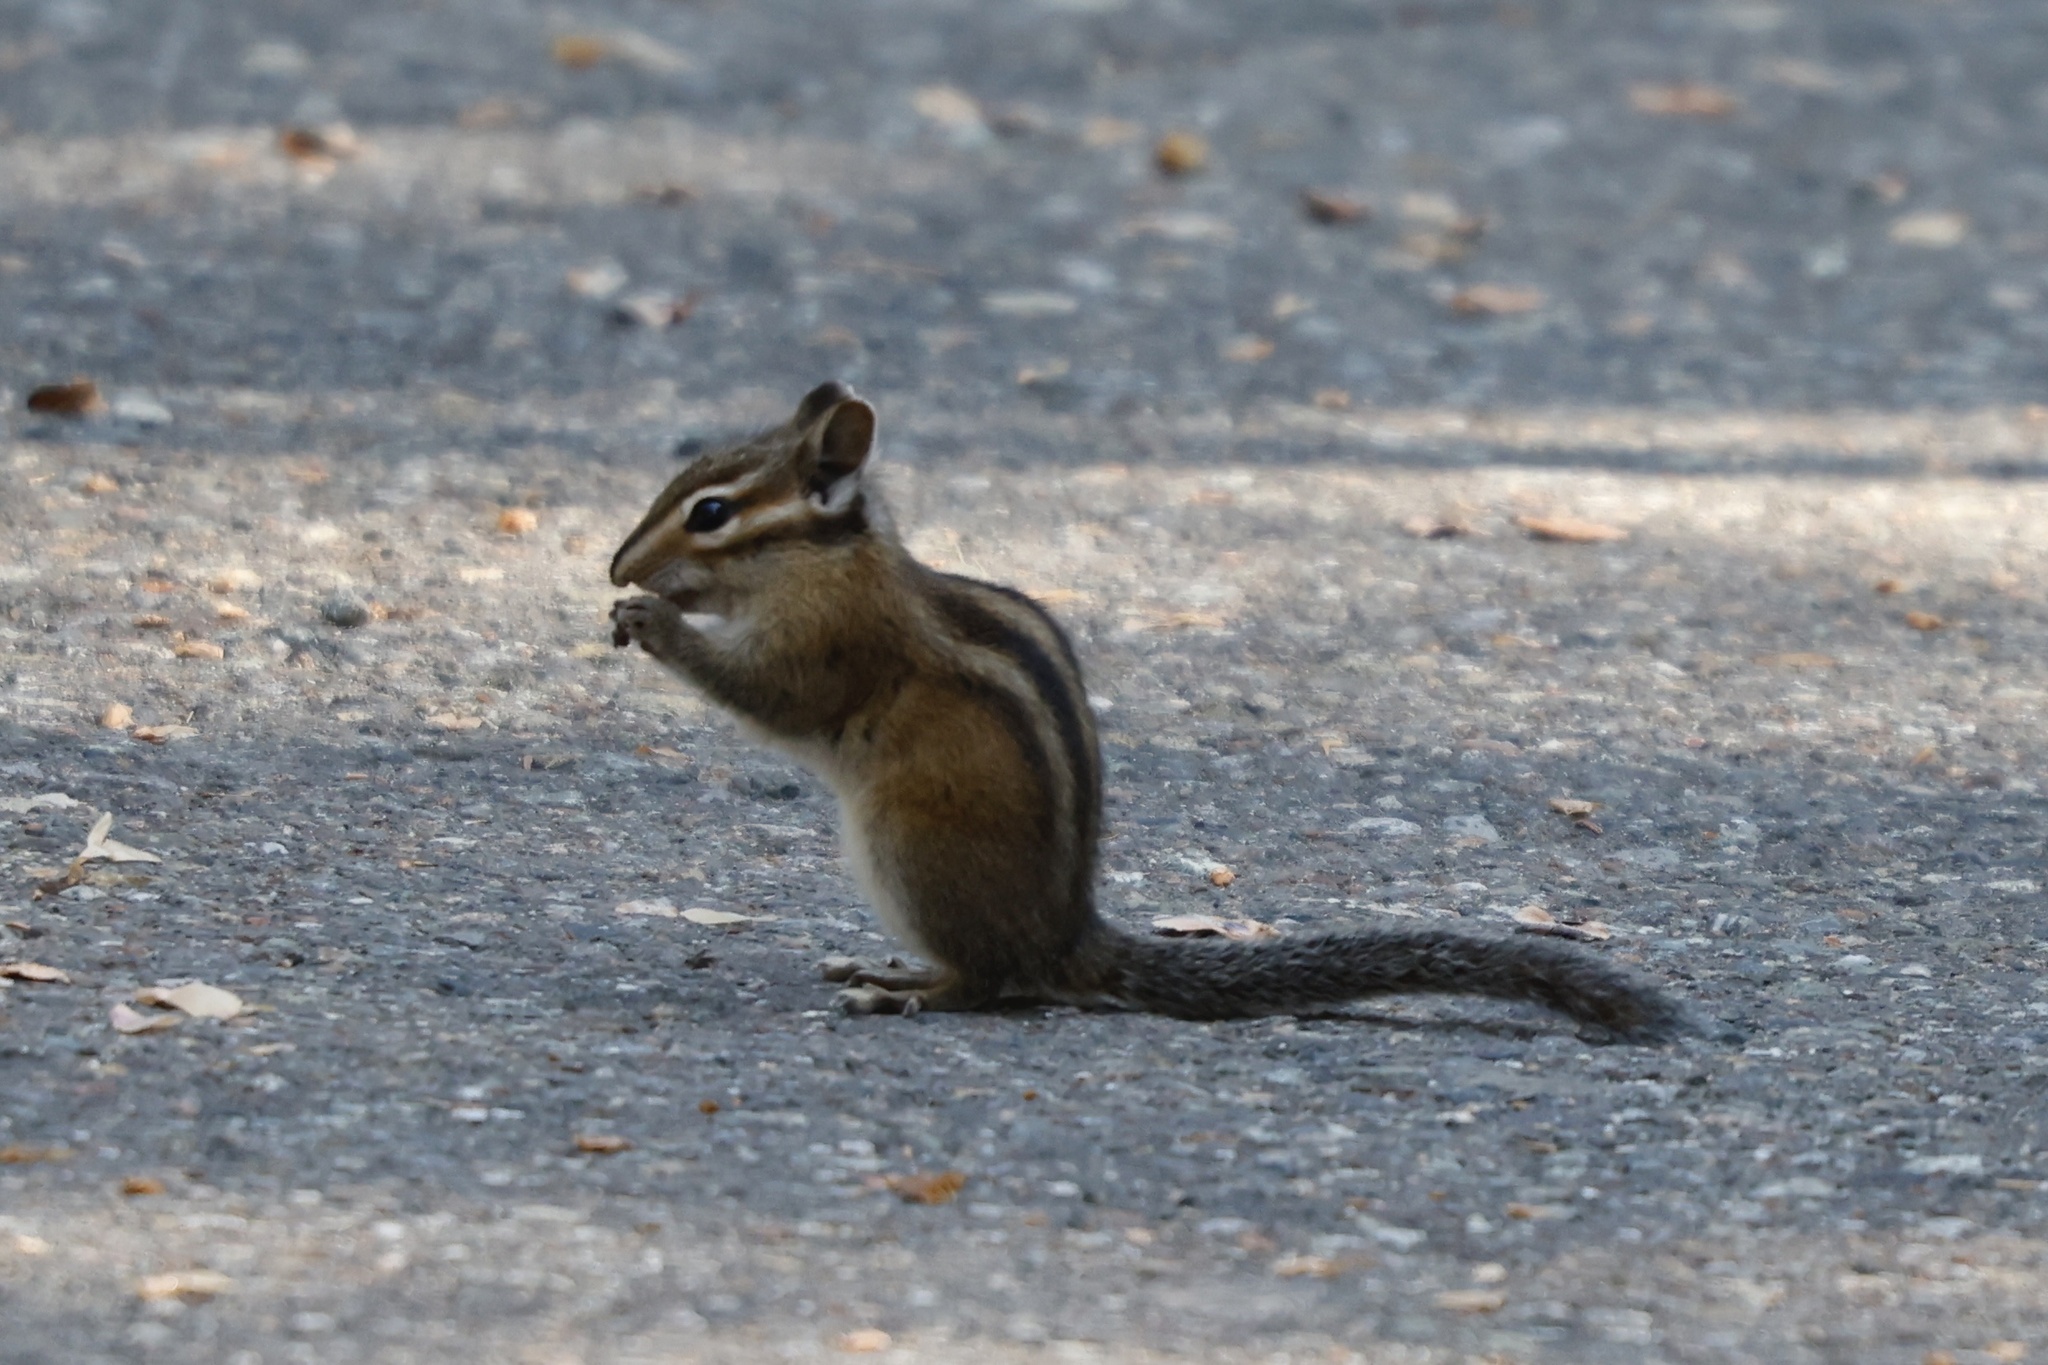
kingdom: Animalia
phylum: Chordata
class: Mammalia
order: Rodentia
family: Sciuridae
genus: Tamias
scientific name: Tamias townsendii
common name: Townsend's chipmunk
